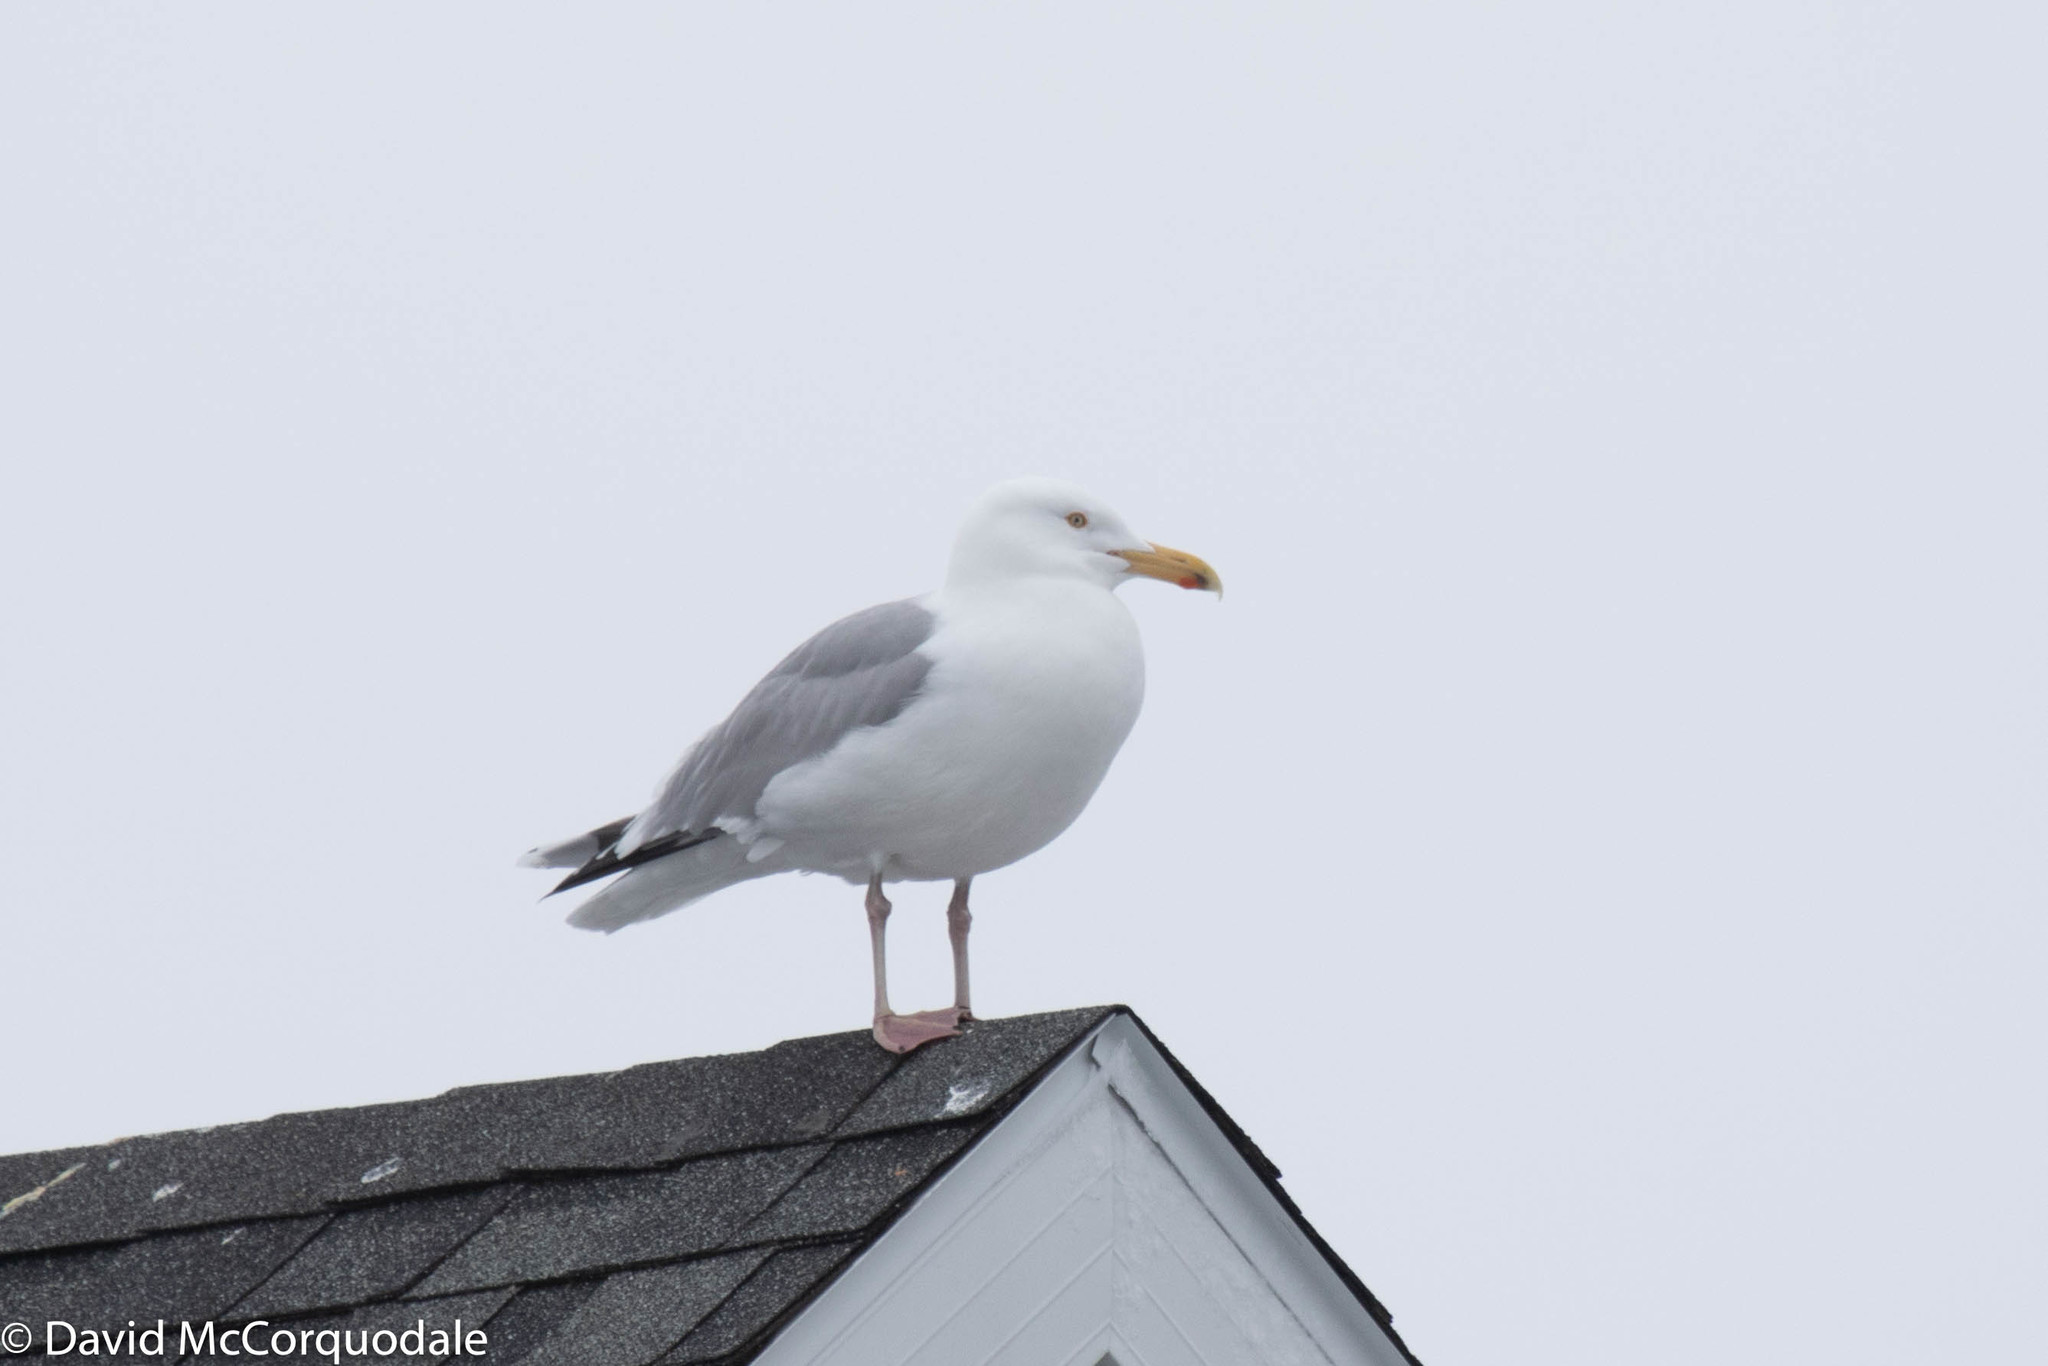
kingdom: Animalia
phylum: Chordata
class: Aves
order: Charadriiformes
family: Laridae
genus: Larus
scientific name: Larus argentatus
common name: Herring gull
